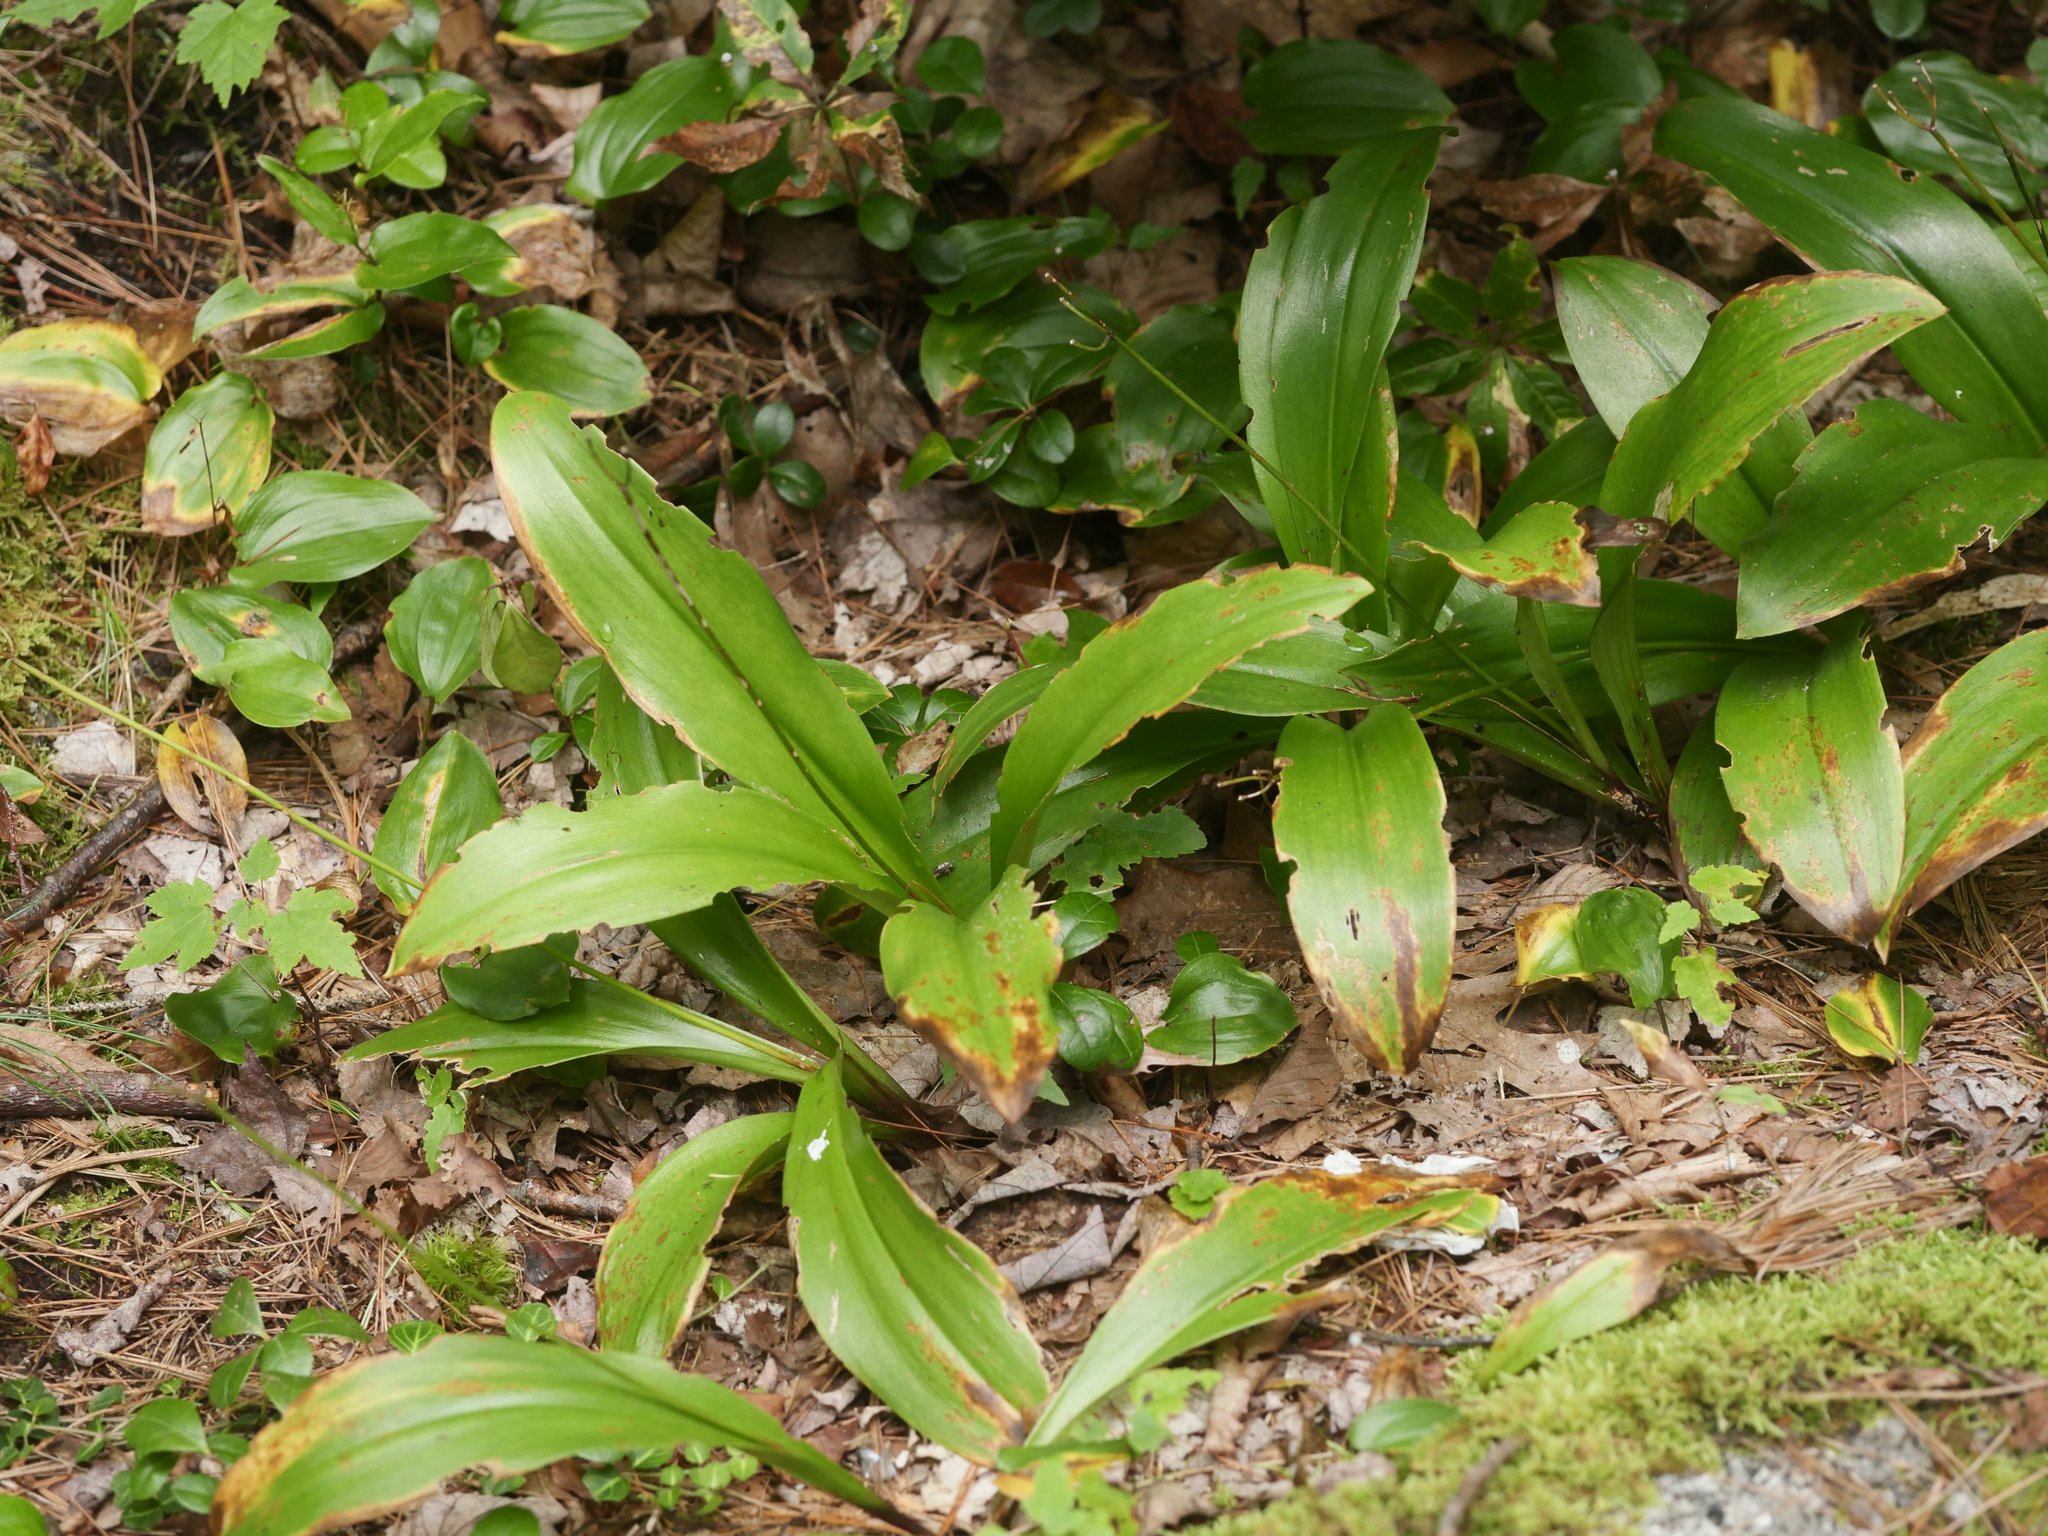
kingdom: Plantae
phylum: Tracheophyta
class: Liliopsida
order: Liliales
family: Liliaceae
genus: Clintonia
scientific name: Clintonia borealis
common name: Yellow clintonia
